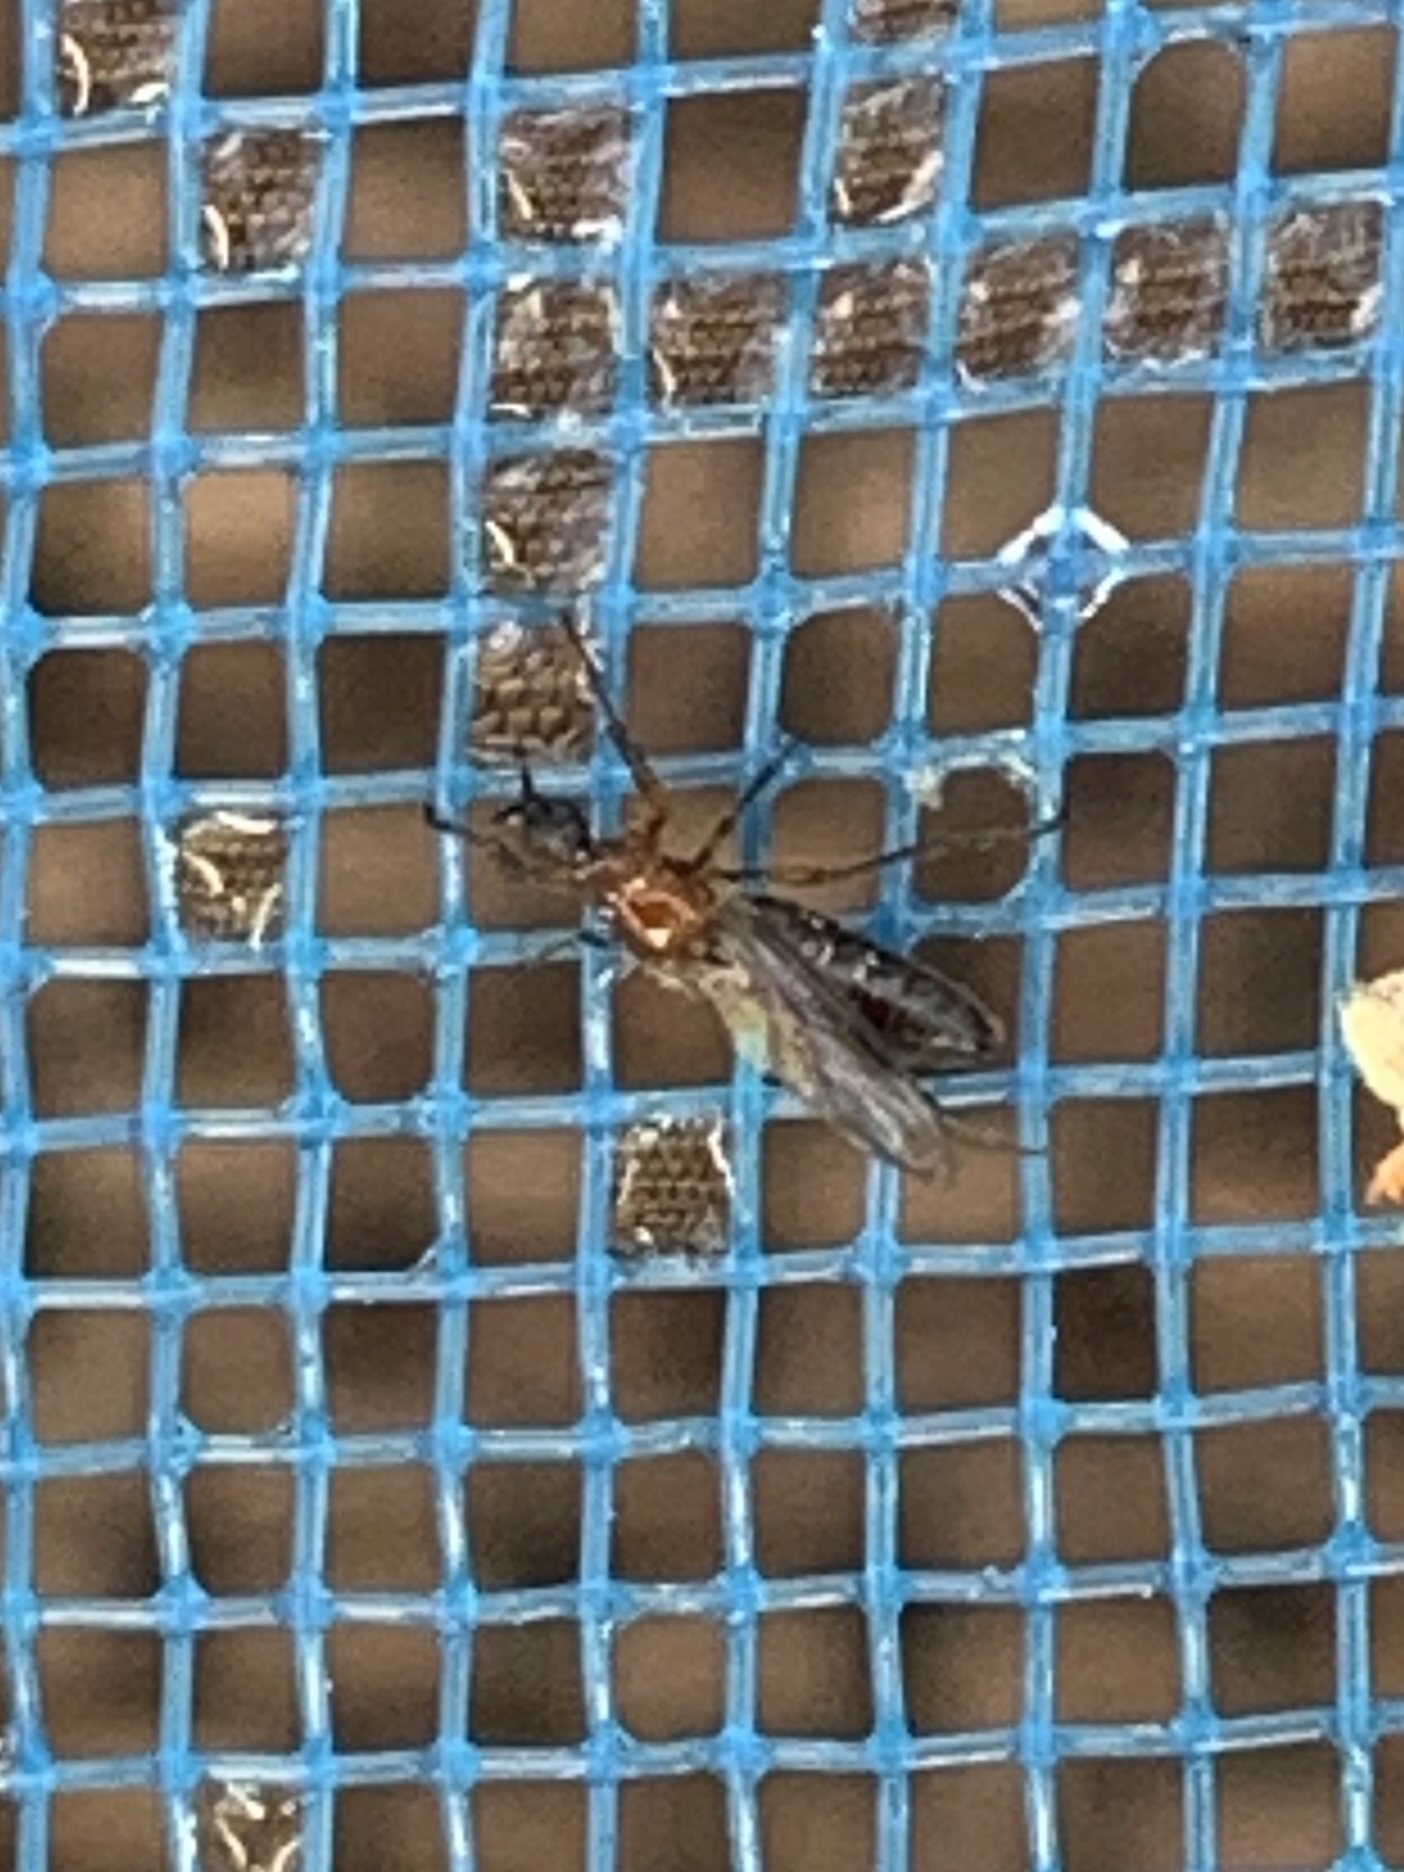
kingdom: Animalia
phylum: Arthropoda
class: Insecta
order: Diptera
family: Bibionidae
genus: Dilophus
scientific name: Dilophus tibialis
